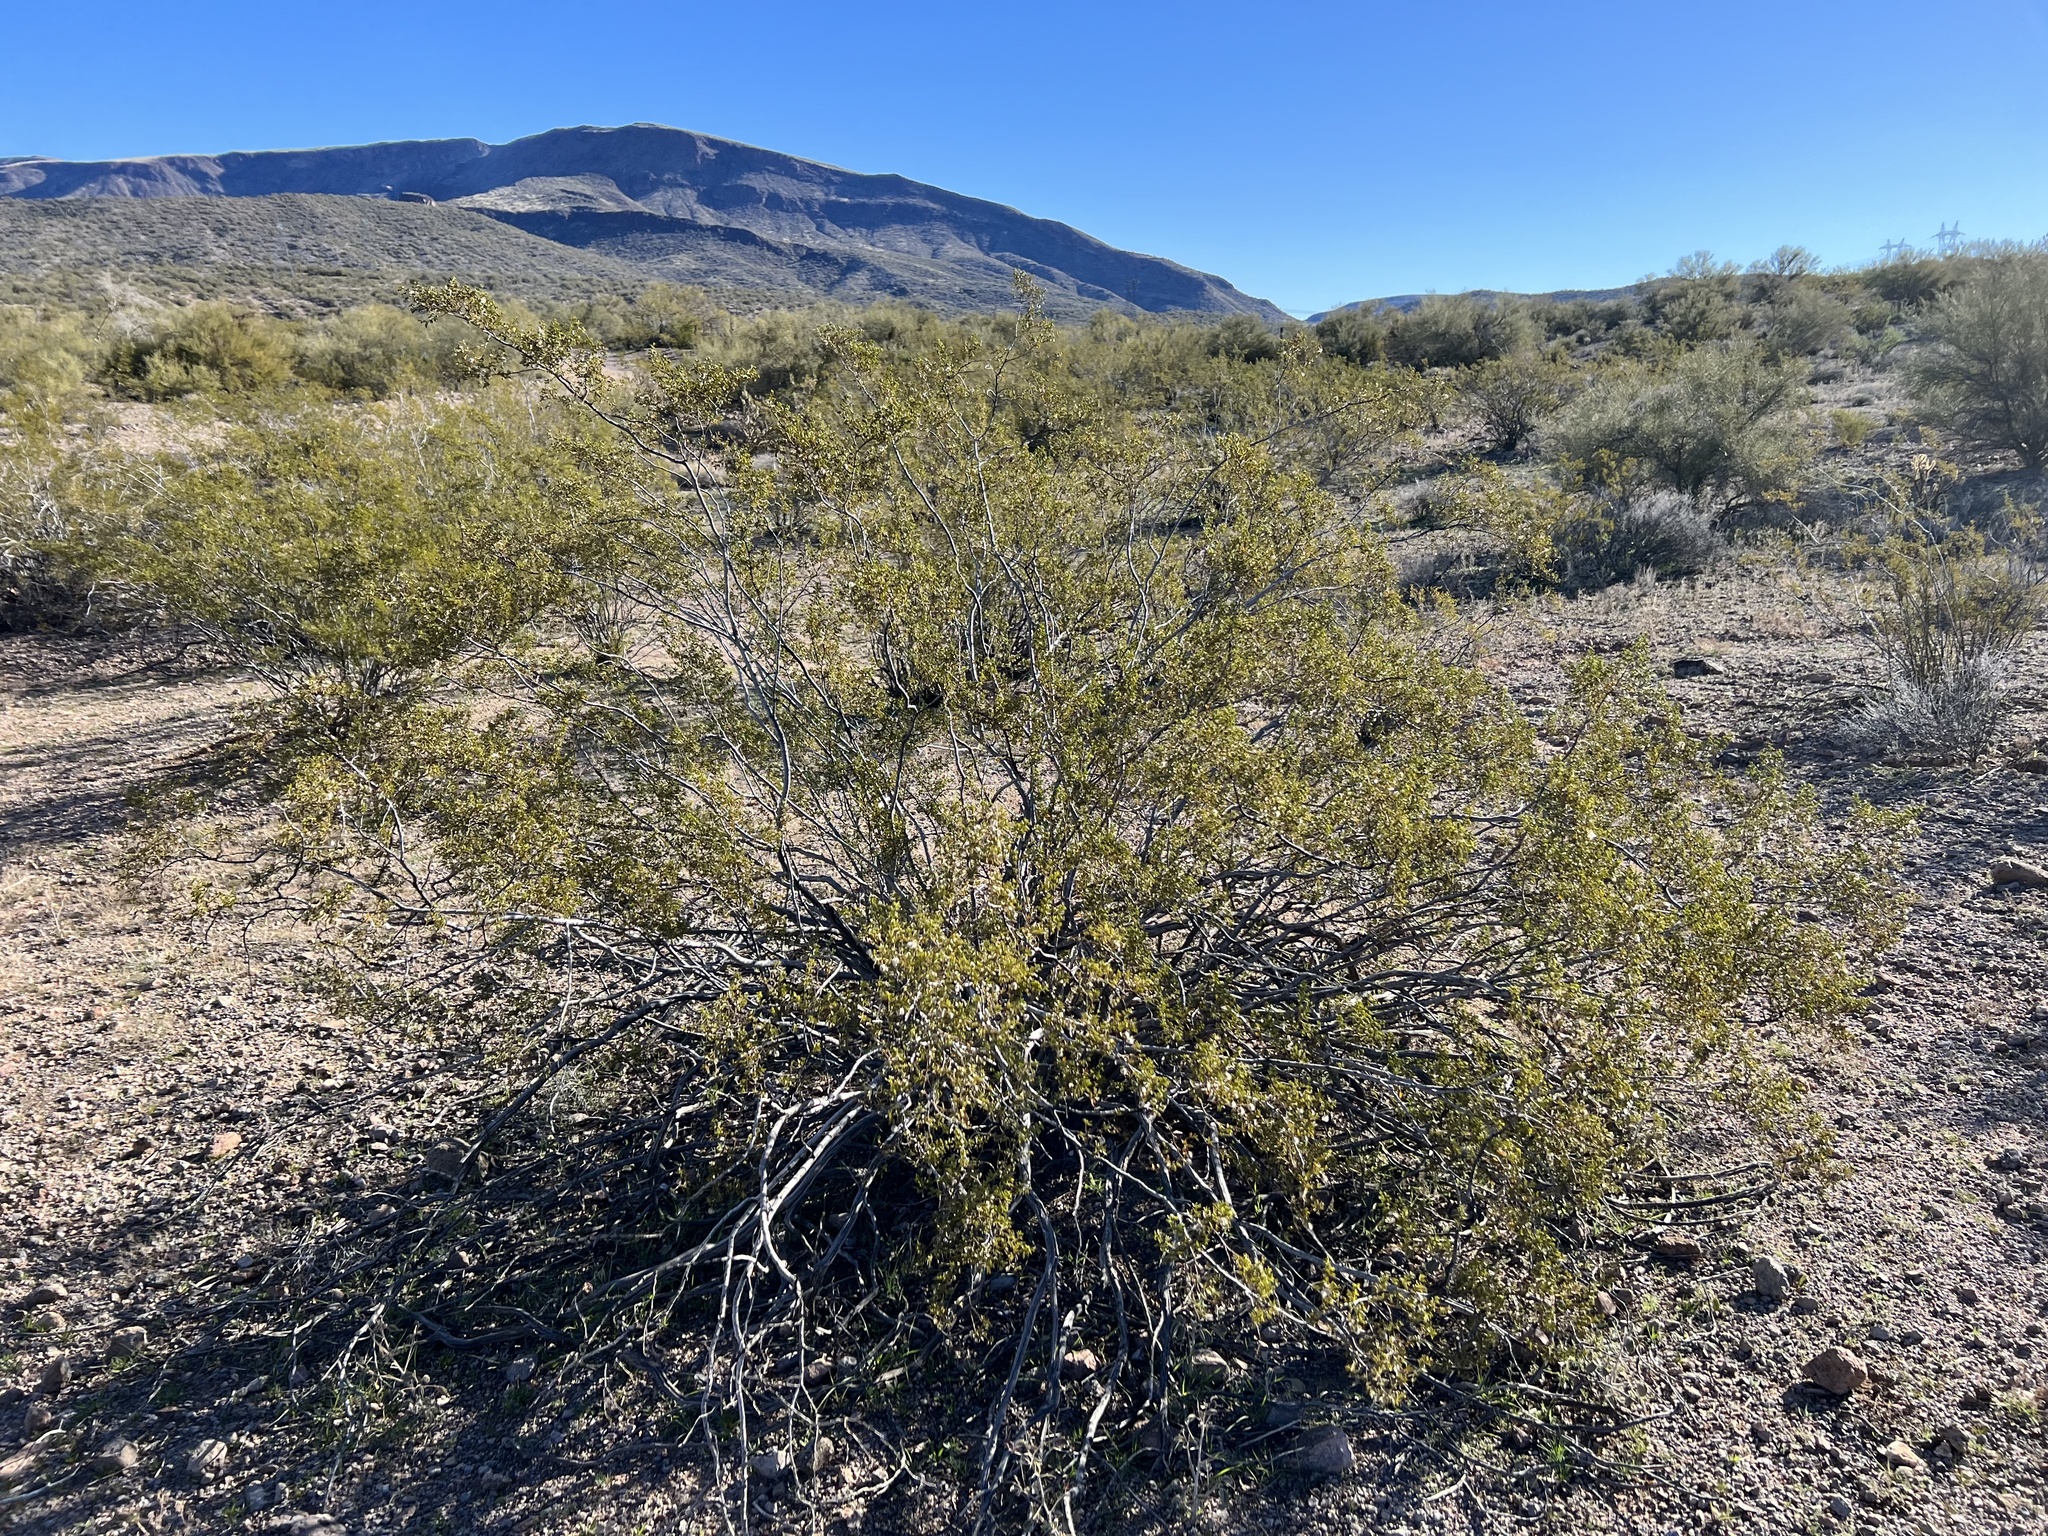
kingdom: Plantae
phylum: Tracheophyta
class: Magnoliopsida
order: Zygophyllales
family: Zygophyllaceae
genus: Larrea
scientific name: Larrea tridentata
